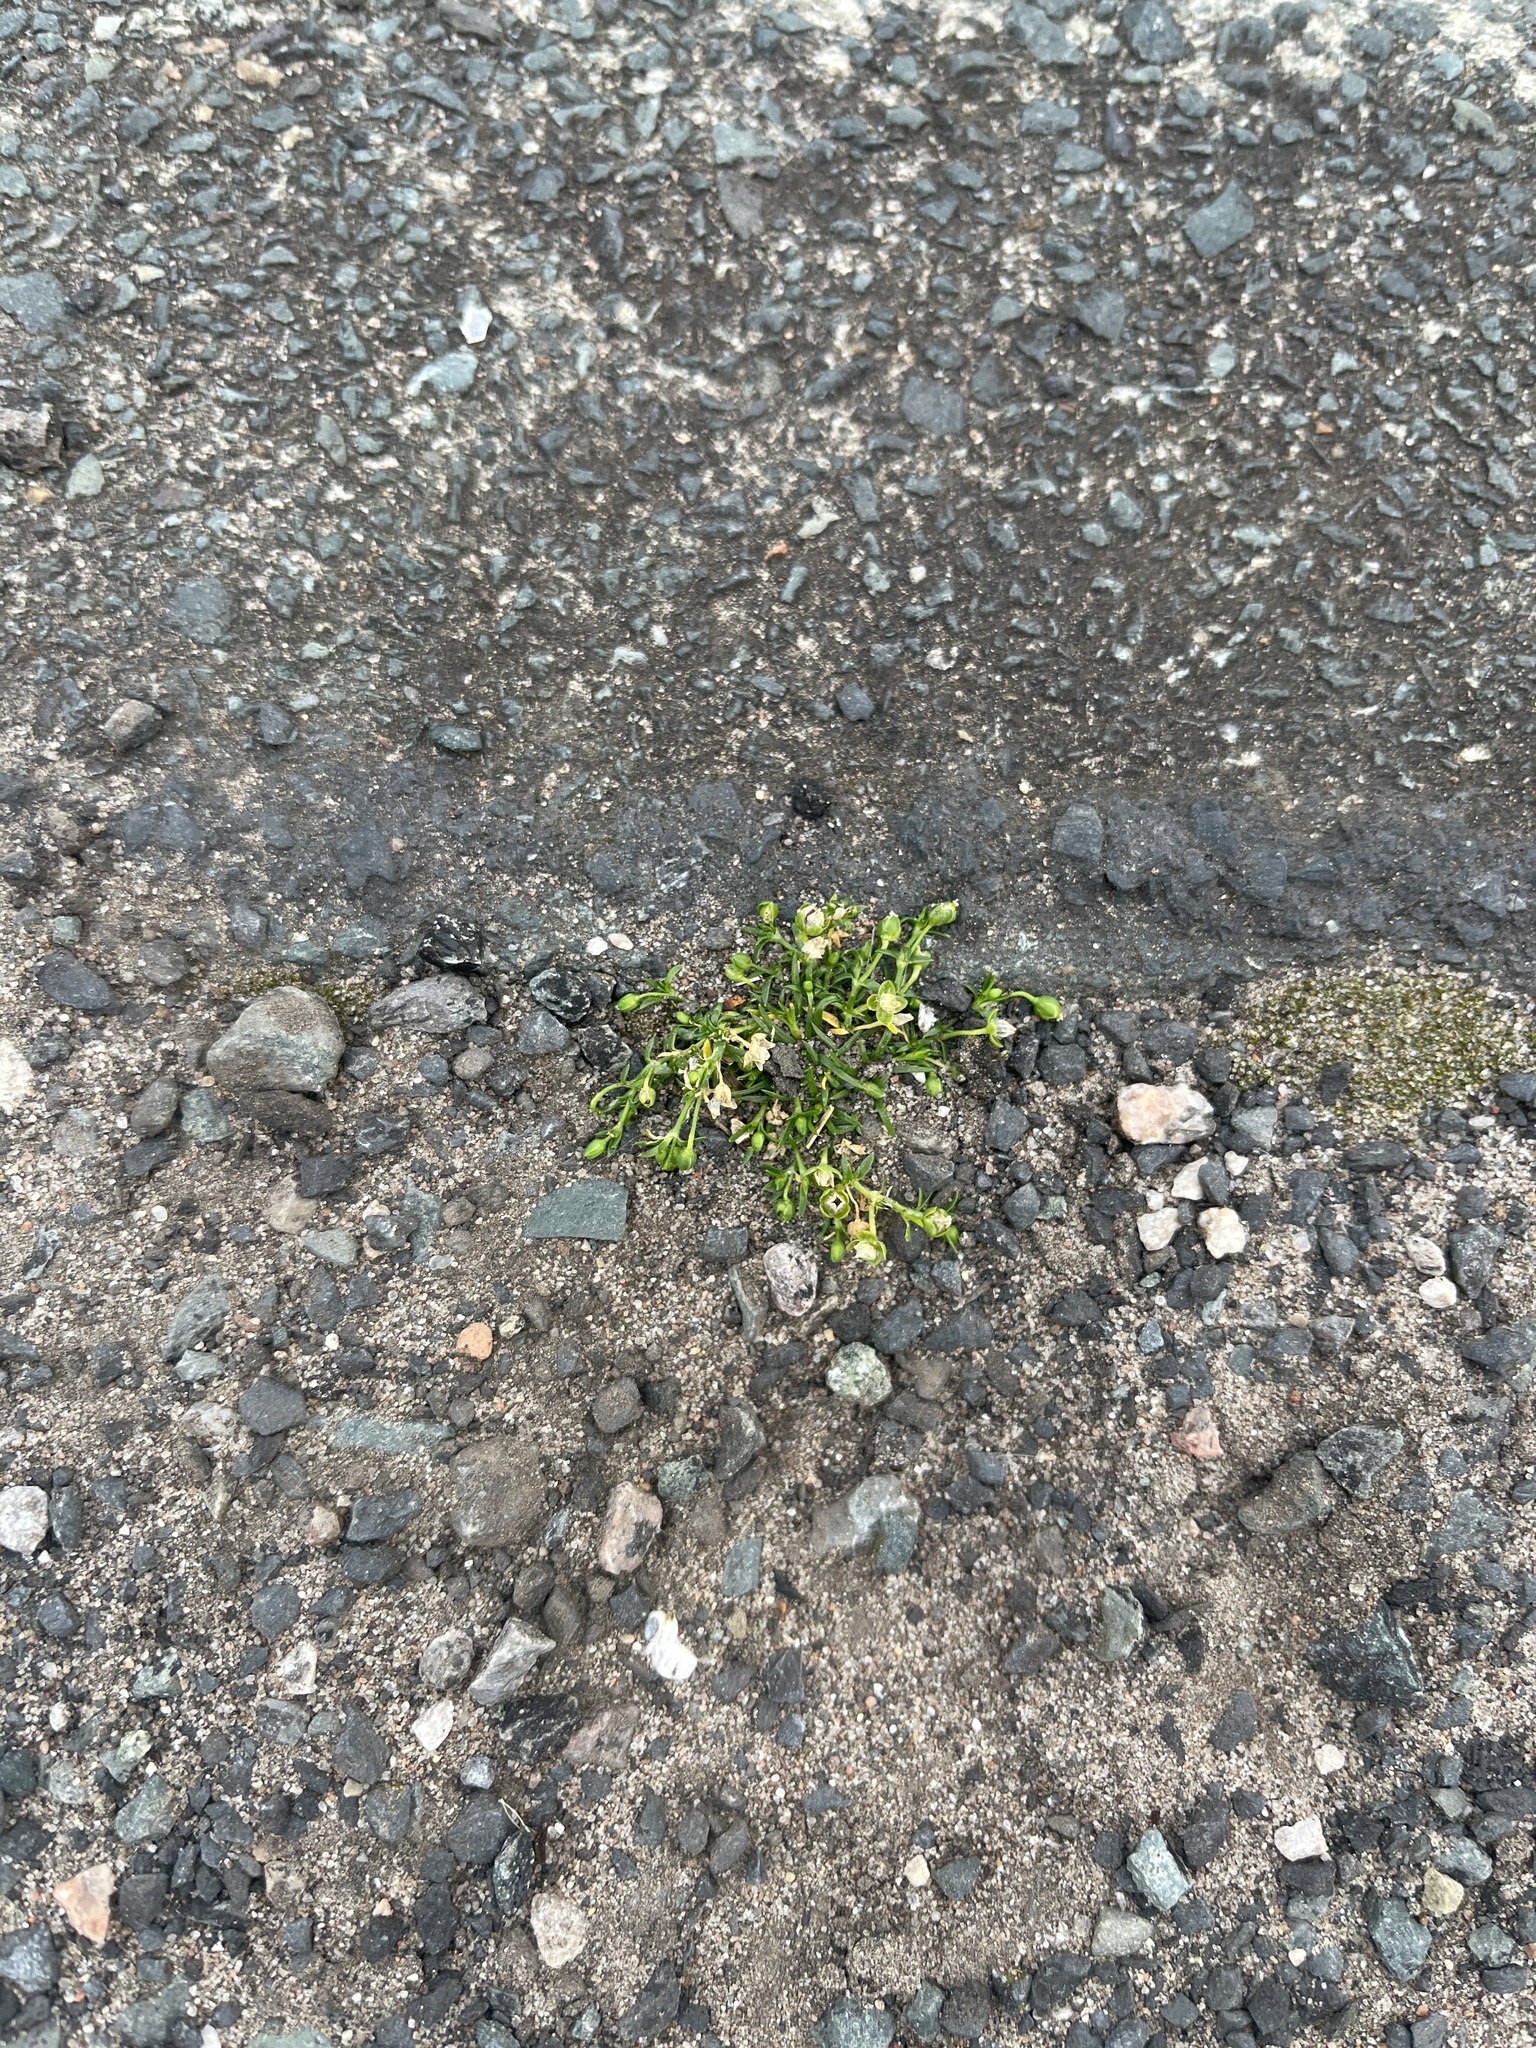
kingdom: Plantae
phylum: Tracheophyta
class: Magnoliopsida
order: Caryophyllales
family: Caryophyllaceae
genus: Sagina
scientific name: Sagina procumbens
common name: Procumbent pearlwort
